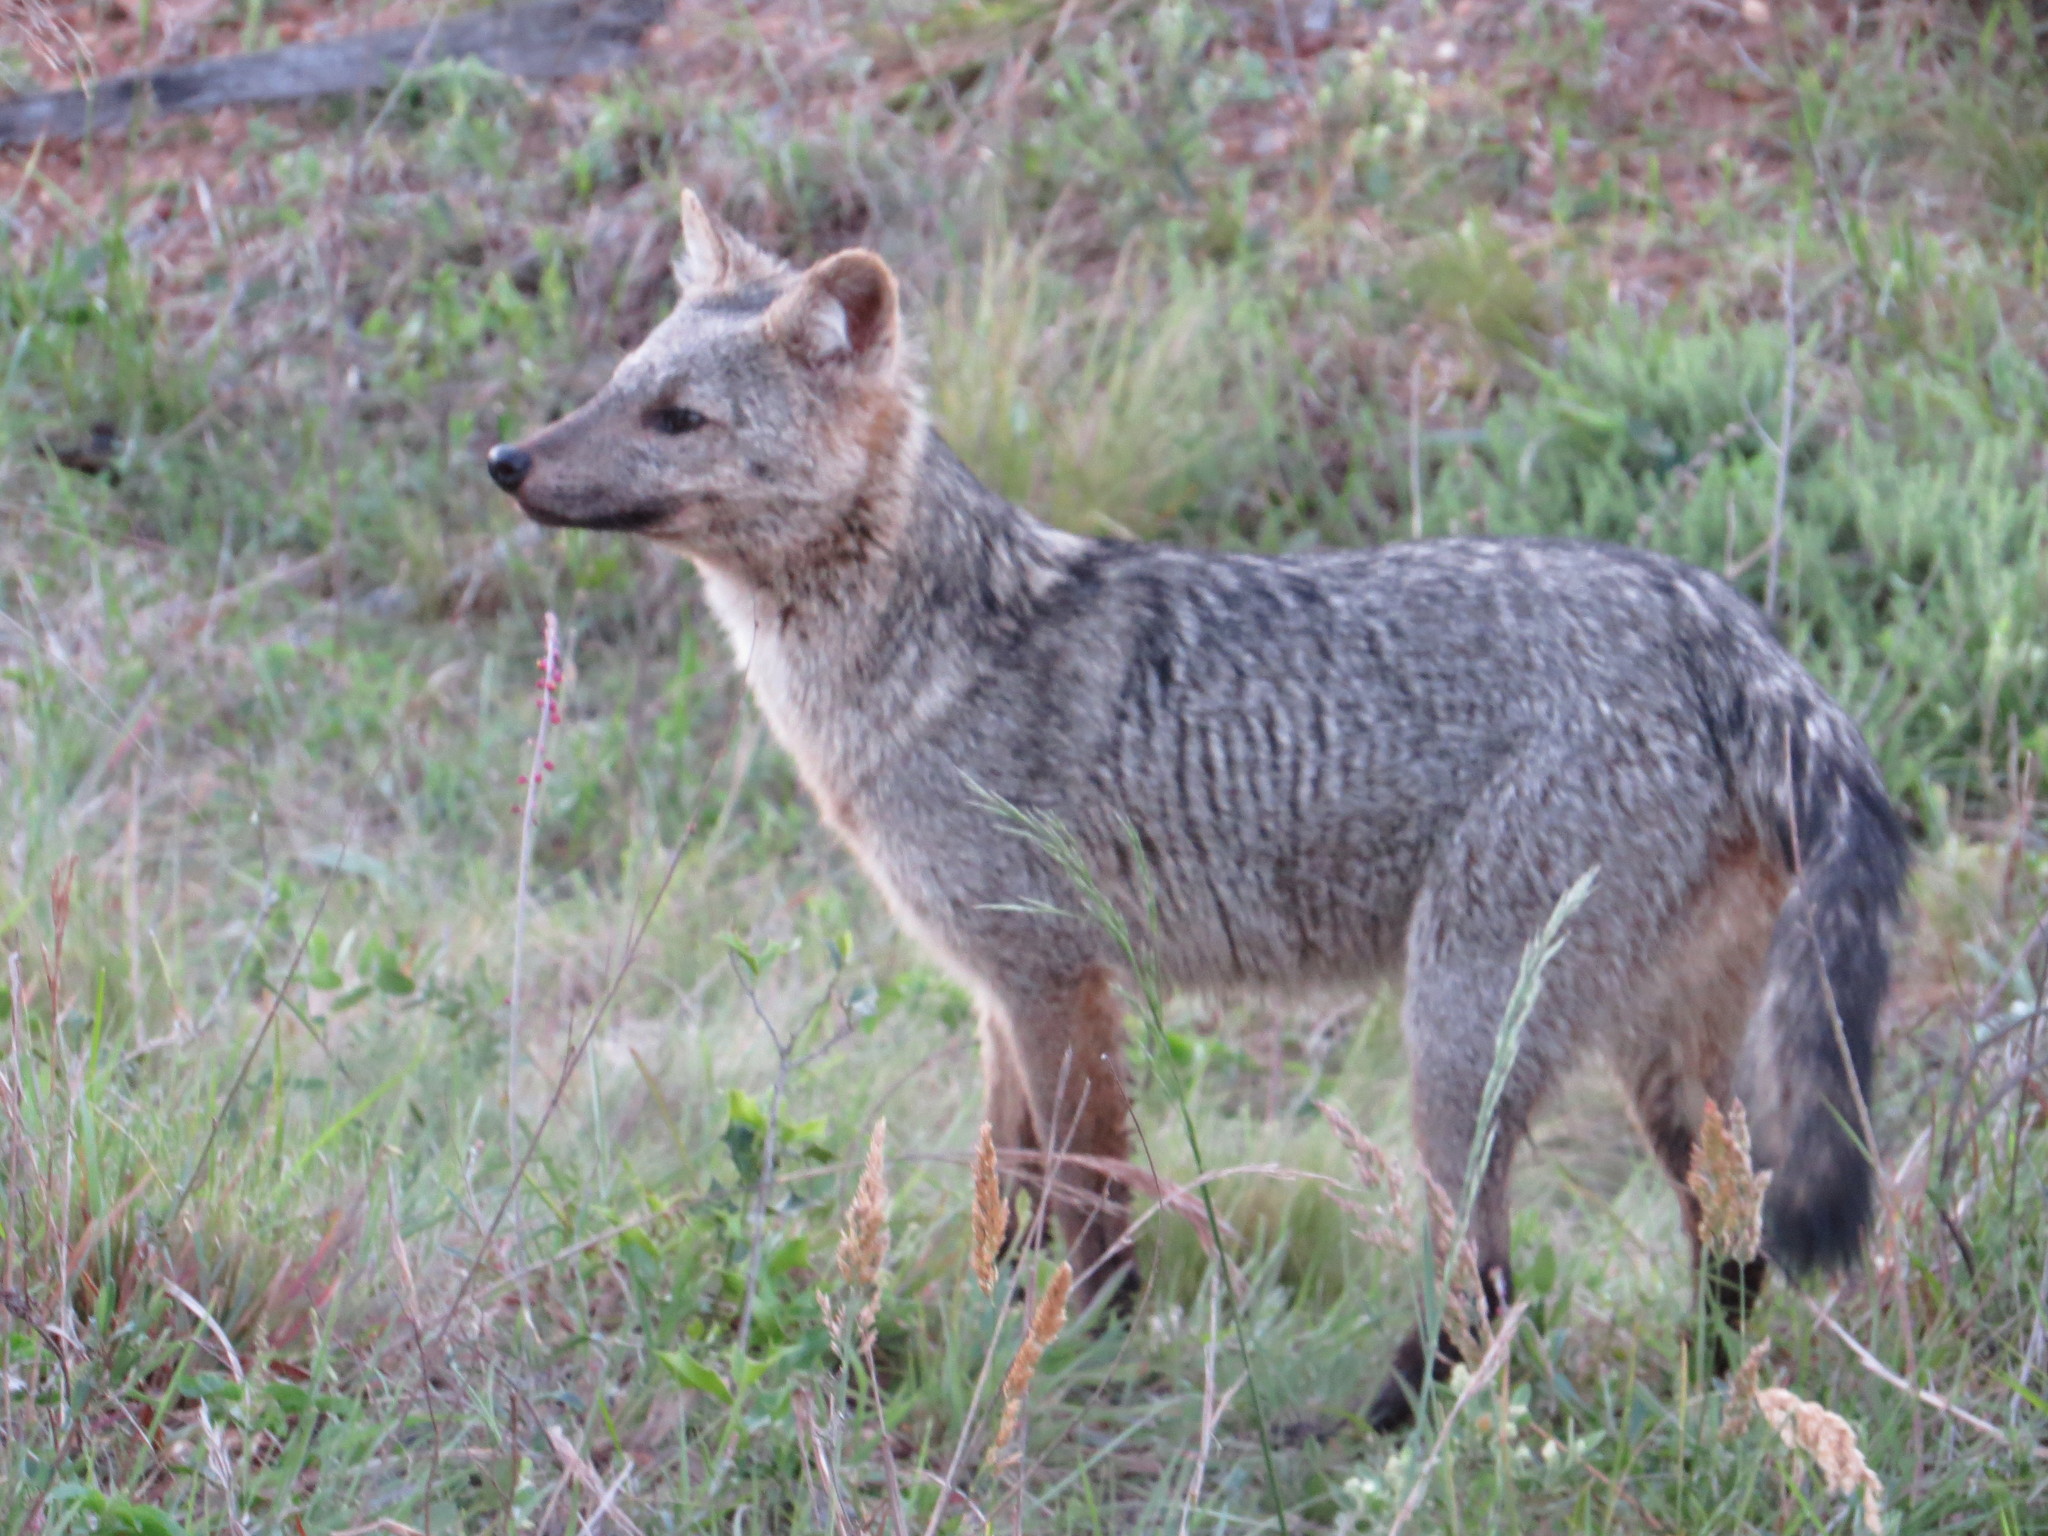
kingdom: Animalia
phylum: Chordata
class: Mammalia
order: Carnivora
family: Canidae
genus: Cerdocyon
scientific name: Cerdocyon thous
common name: Crab-eating fox
